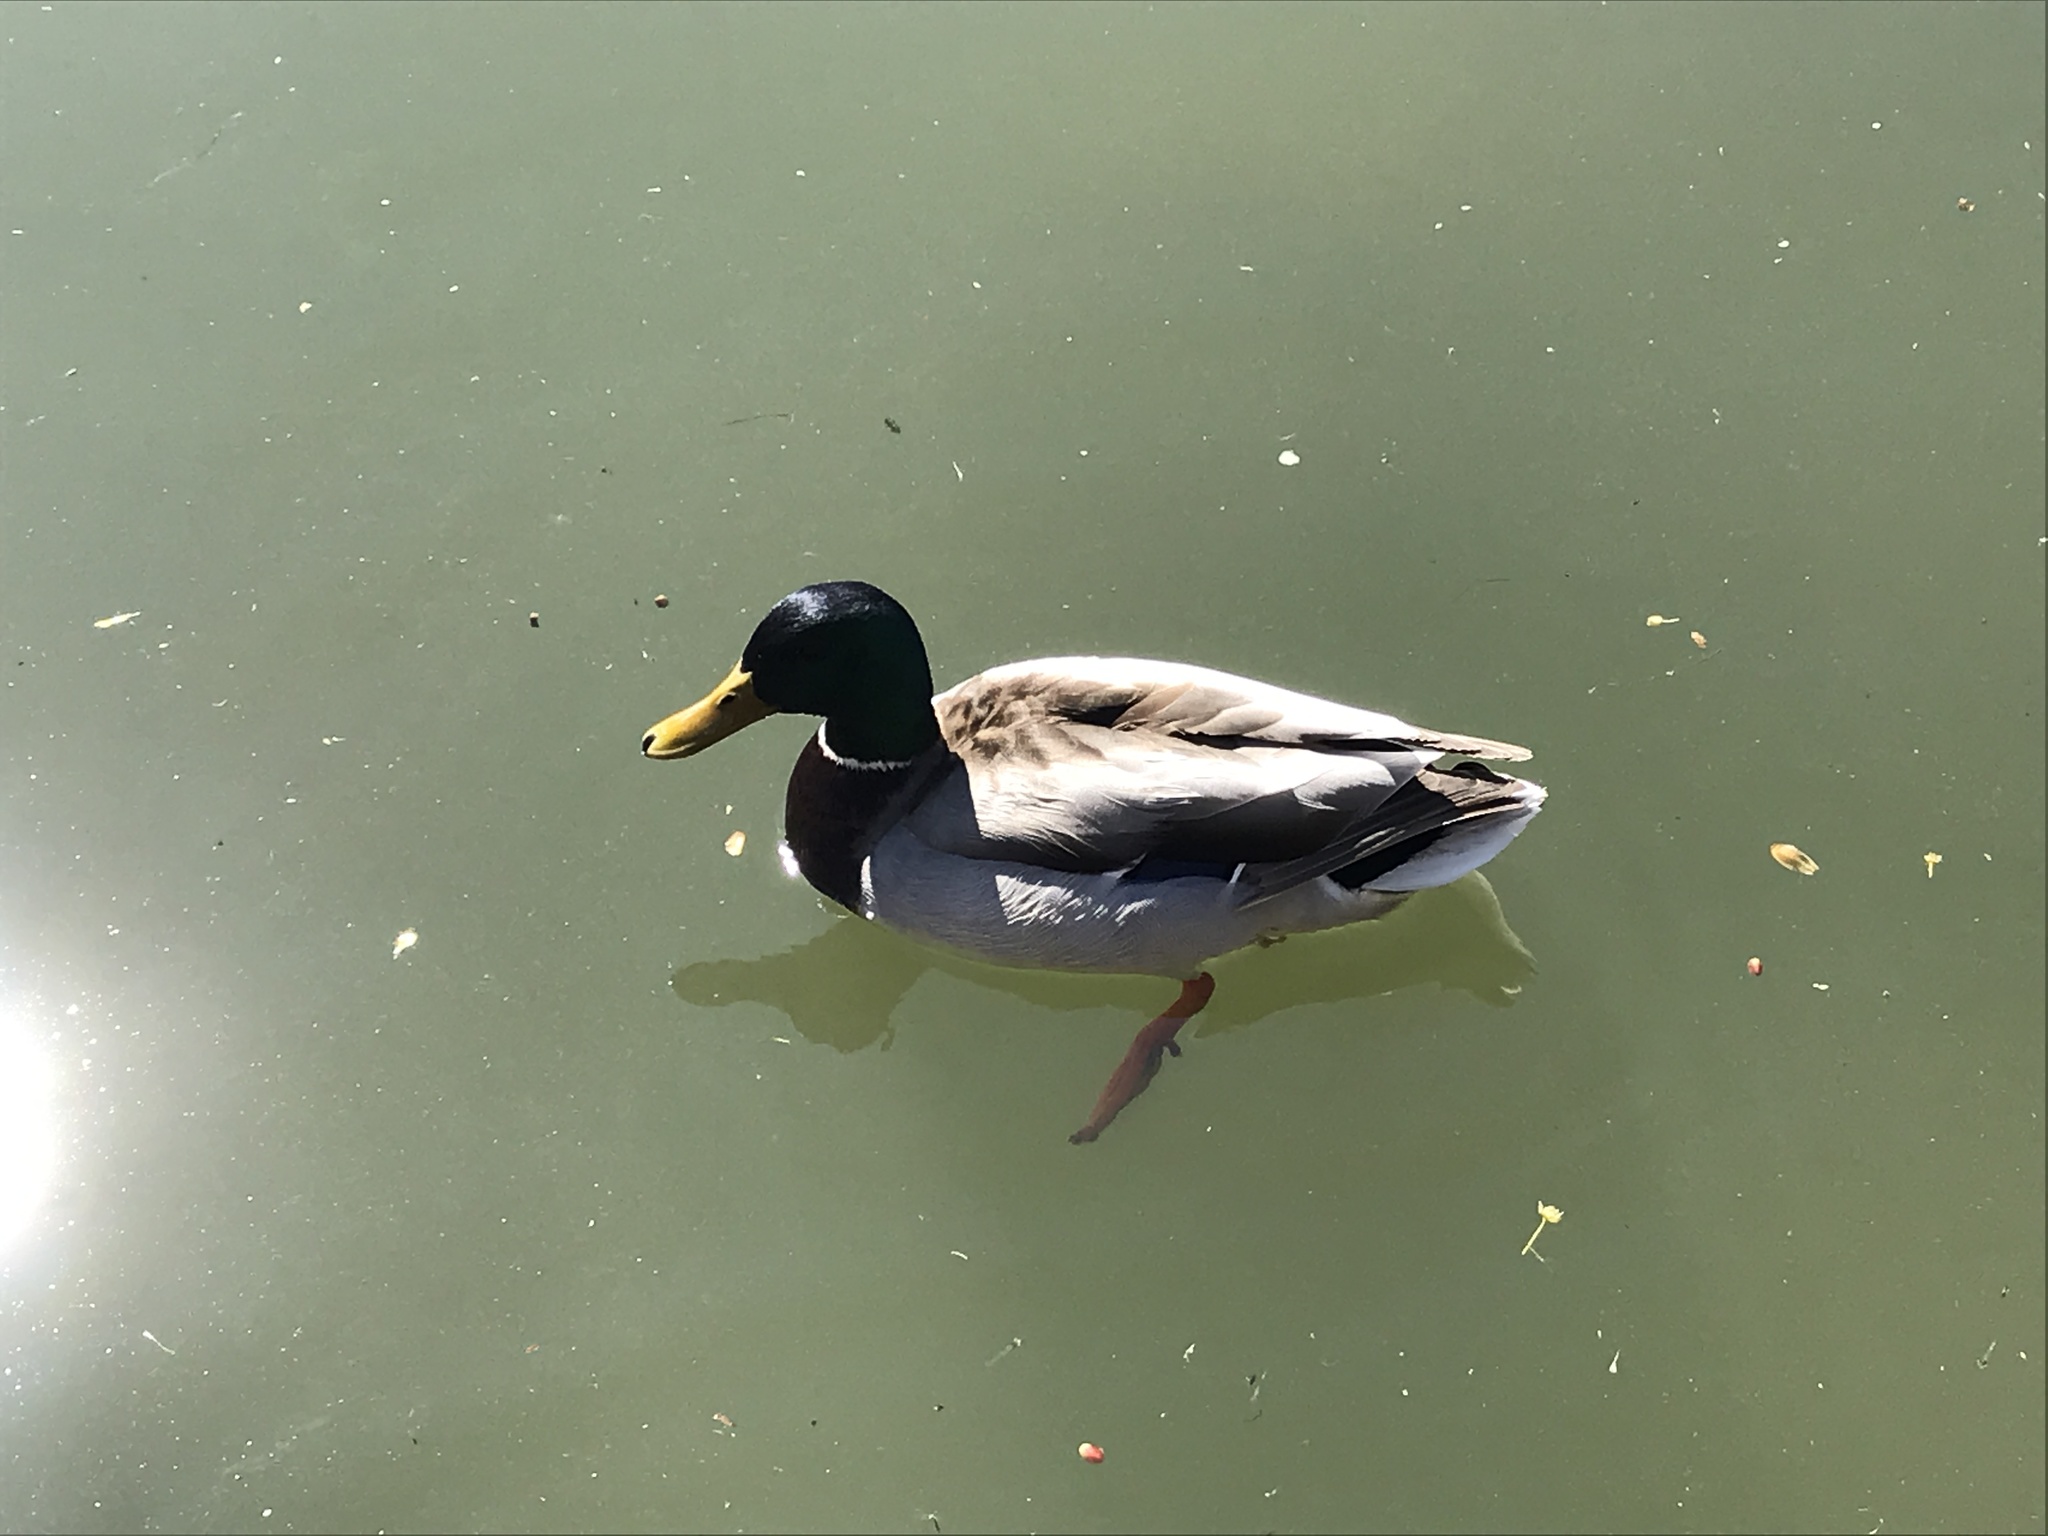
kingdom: Animalia
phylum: Chordata
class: Aves
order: Anseriformes
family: Anatidae
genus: Anas
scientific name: Anas platyrhynchos
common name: Mallard
